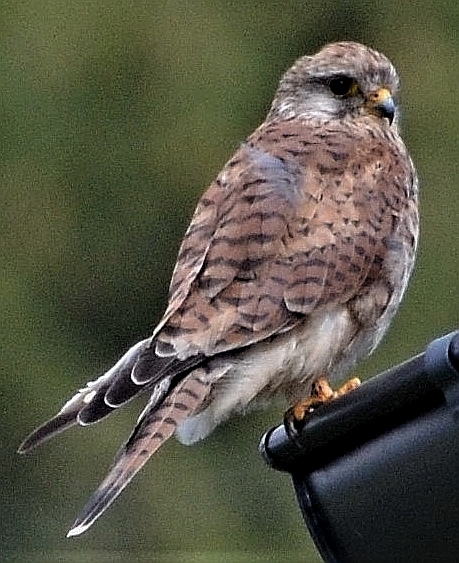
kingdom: Animalia
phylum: Chordata
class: Aves
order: Falconiformes
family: Falconidae
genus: Falco
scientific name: Falco tinnunculus
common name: Common kestrel
